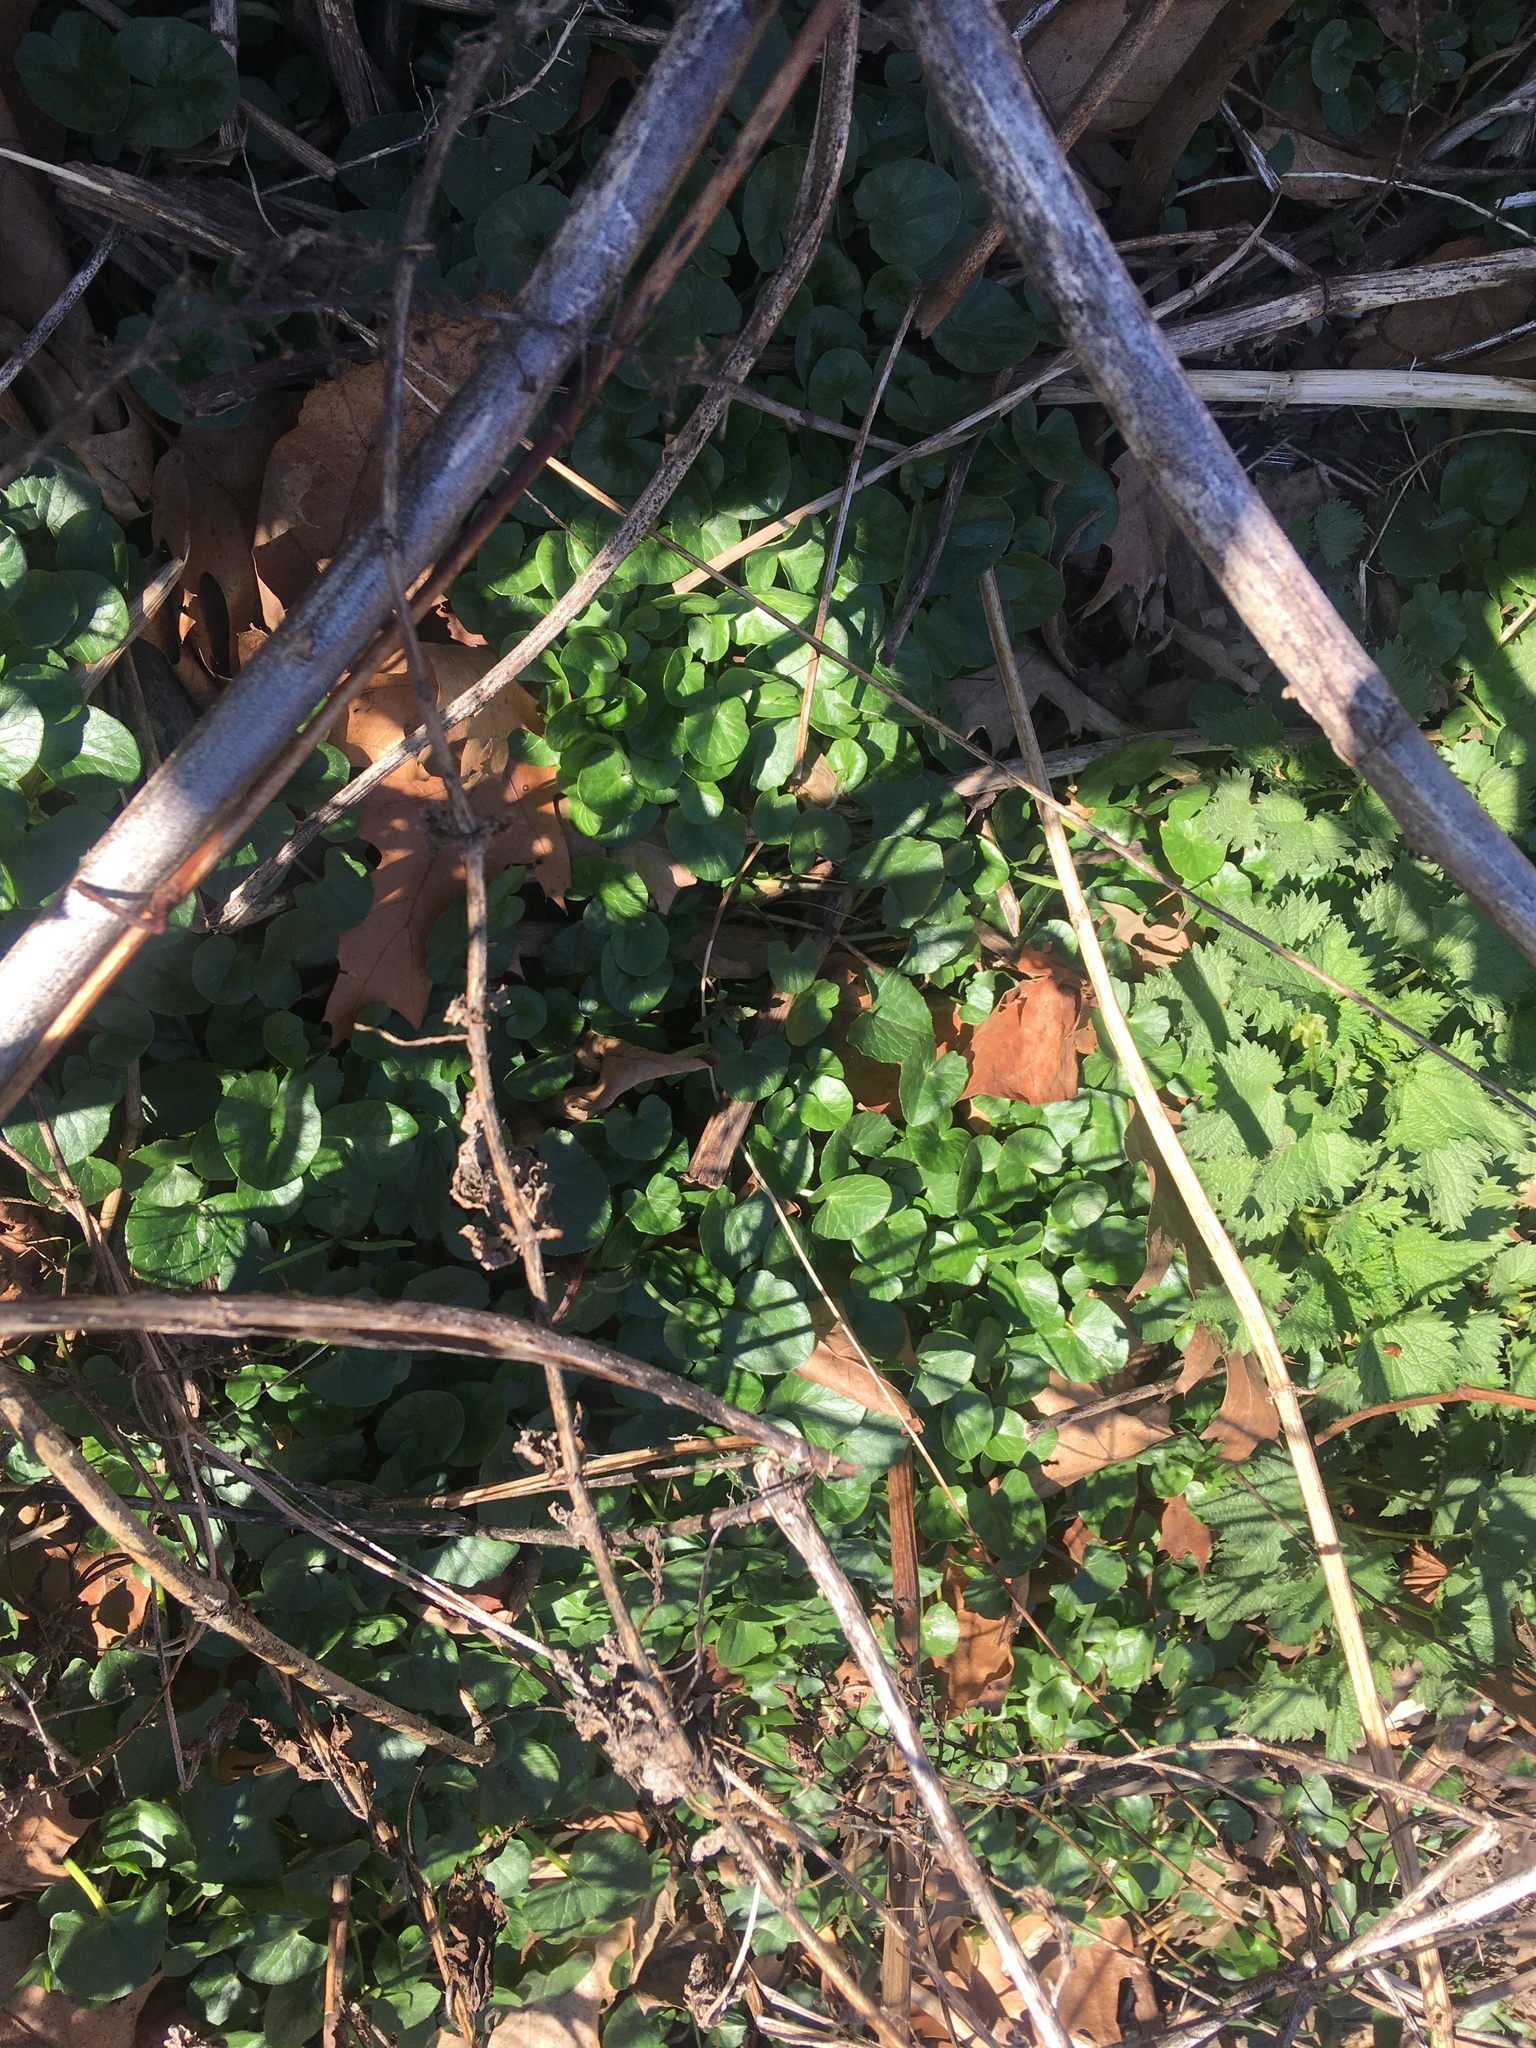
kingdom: Plantae
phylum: Tracheophyta
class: Magnoliopsida
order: Ranunculales
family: Ranunculaceae
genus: Ficaria
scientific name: Ficaria verna
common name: Lesser celandine
